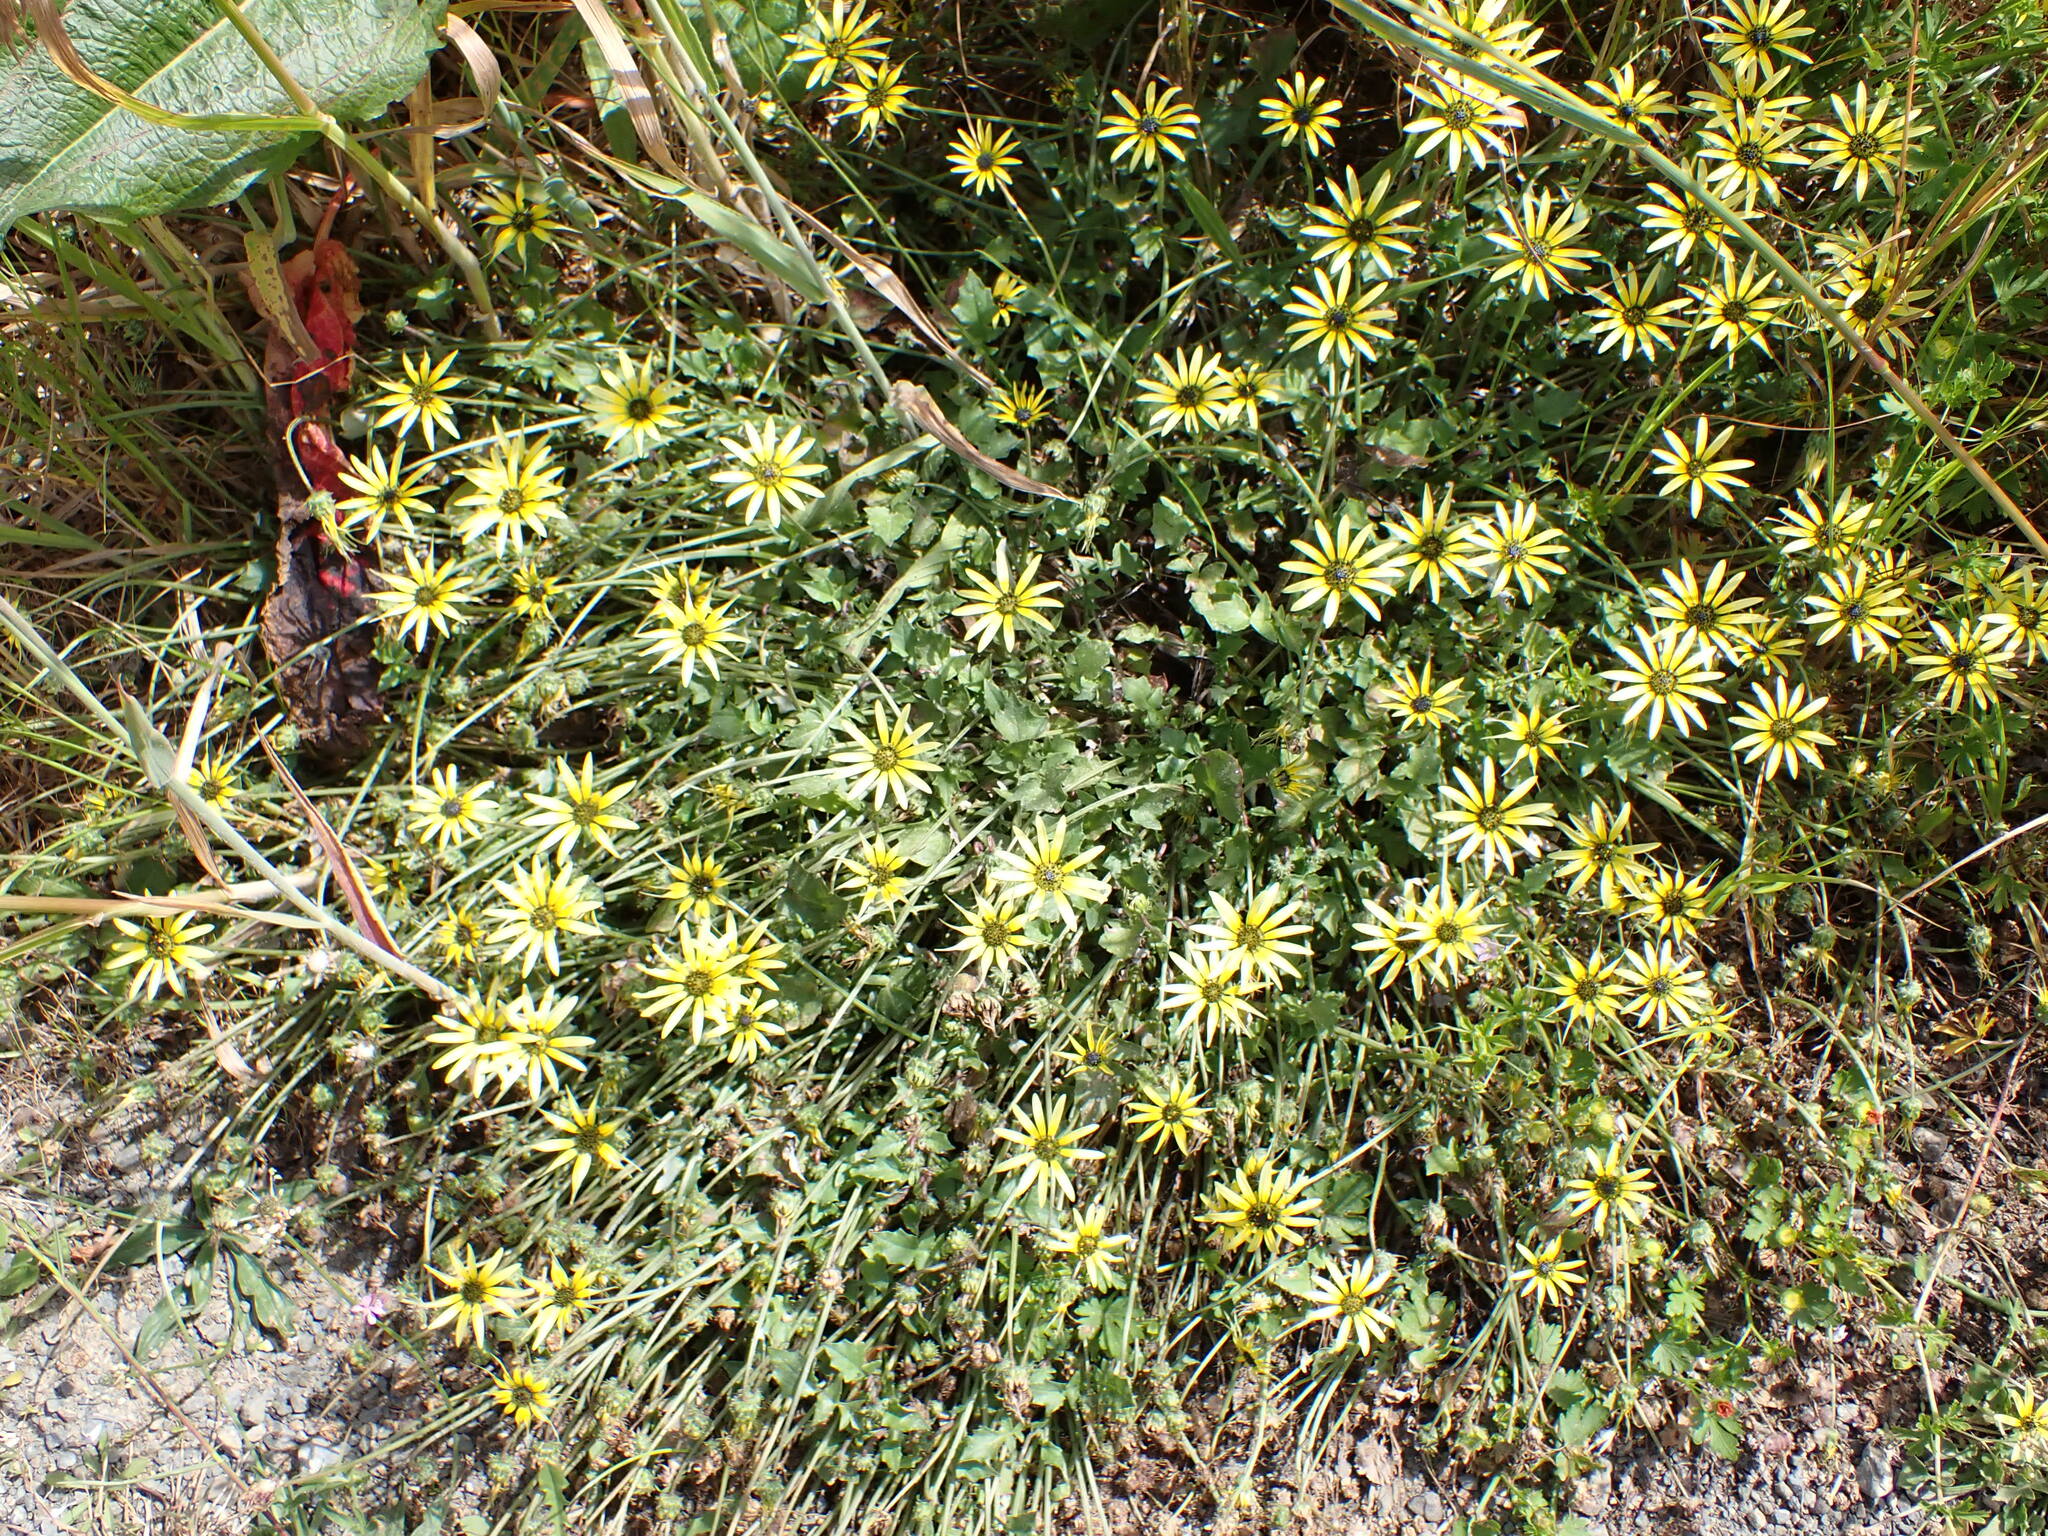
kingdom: Plantae
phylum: Tracheophyta
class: Magnoliopsida
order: Asterales
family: Asteraceae
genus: Arctotheca
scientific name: Arctotheca calendula
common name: Capeweed
